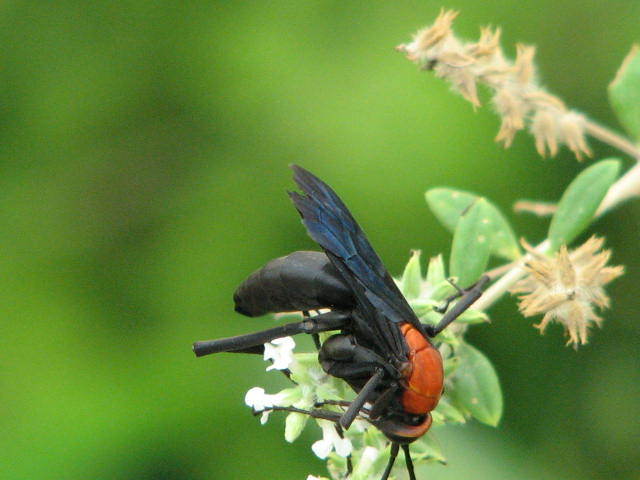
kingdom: Animalia
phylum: Arthropoda
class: Insecta
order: Hymenoptera
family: Pompilidae
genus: Notocyphus
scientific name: Notocyphus dorsalis
